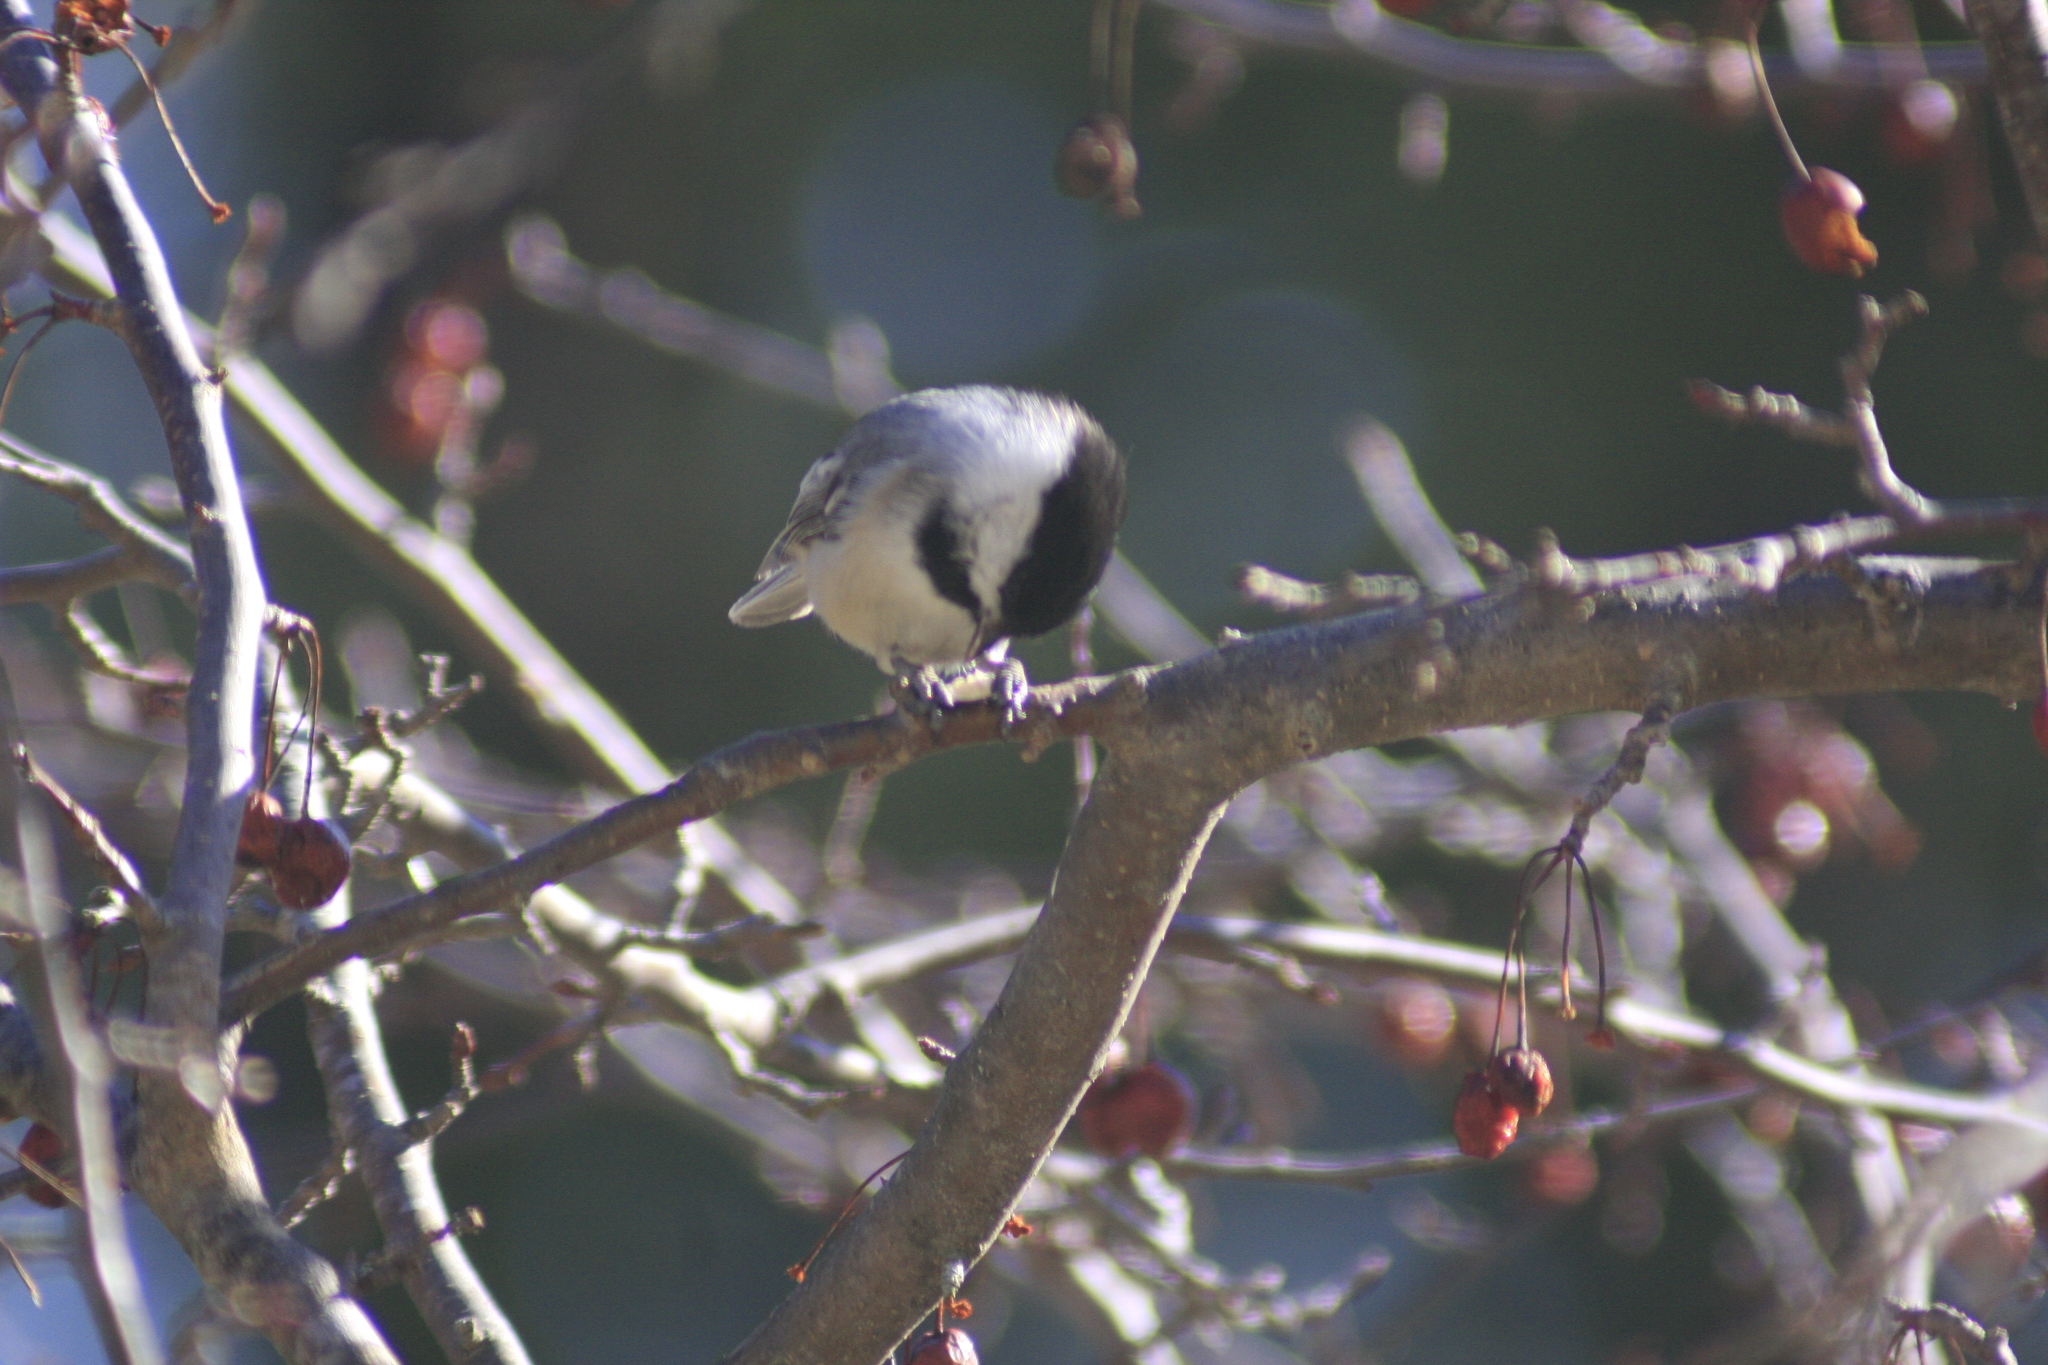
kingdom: Animalia
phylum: Chordata
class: Aves
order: Passeriformes
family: Paridae
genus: Poecile
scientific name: Poecile atricapillus
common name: Black-capped chickadee
